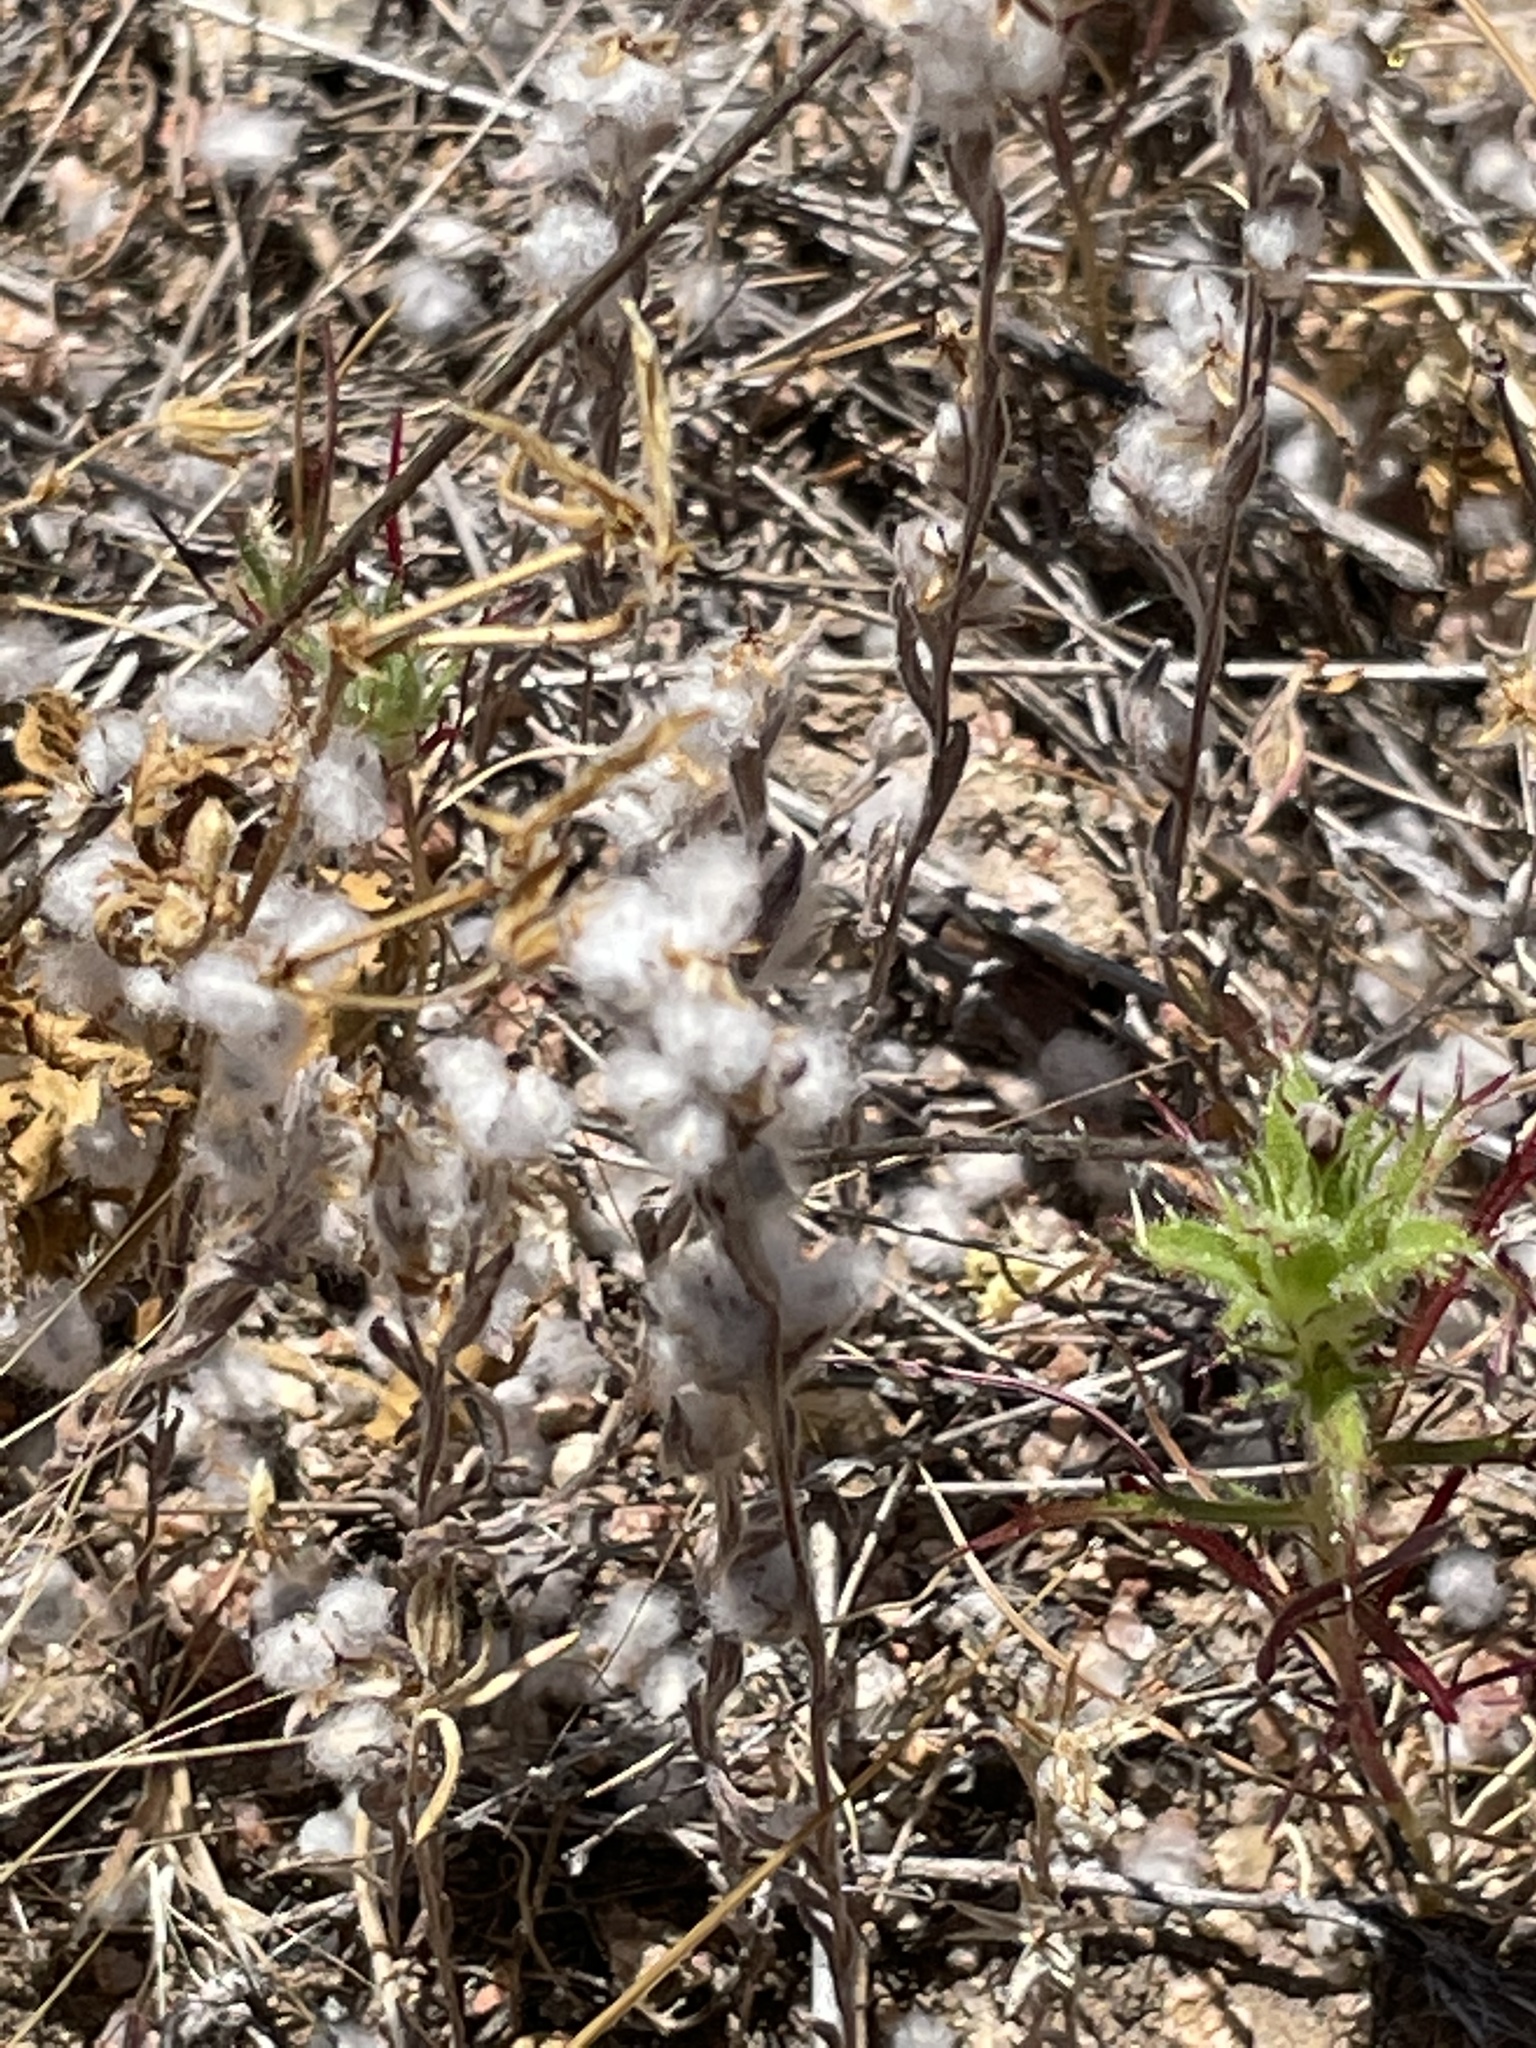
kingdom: Plantae
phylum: Tracheophyta
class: Magnoliopsida
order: Asterales
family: Asteraceae
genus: Bombycilaena
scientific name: Bombycilaena californica
